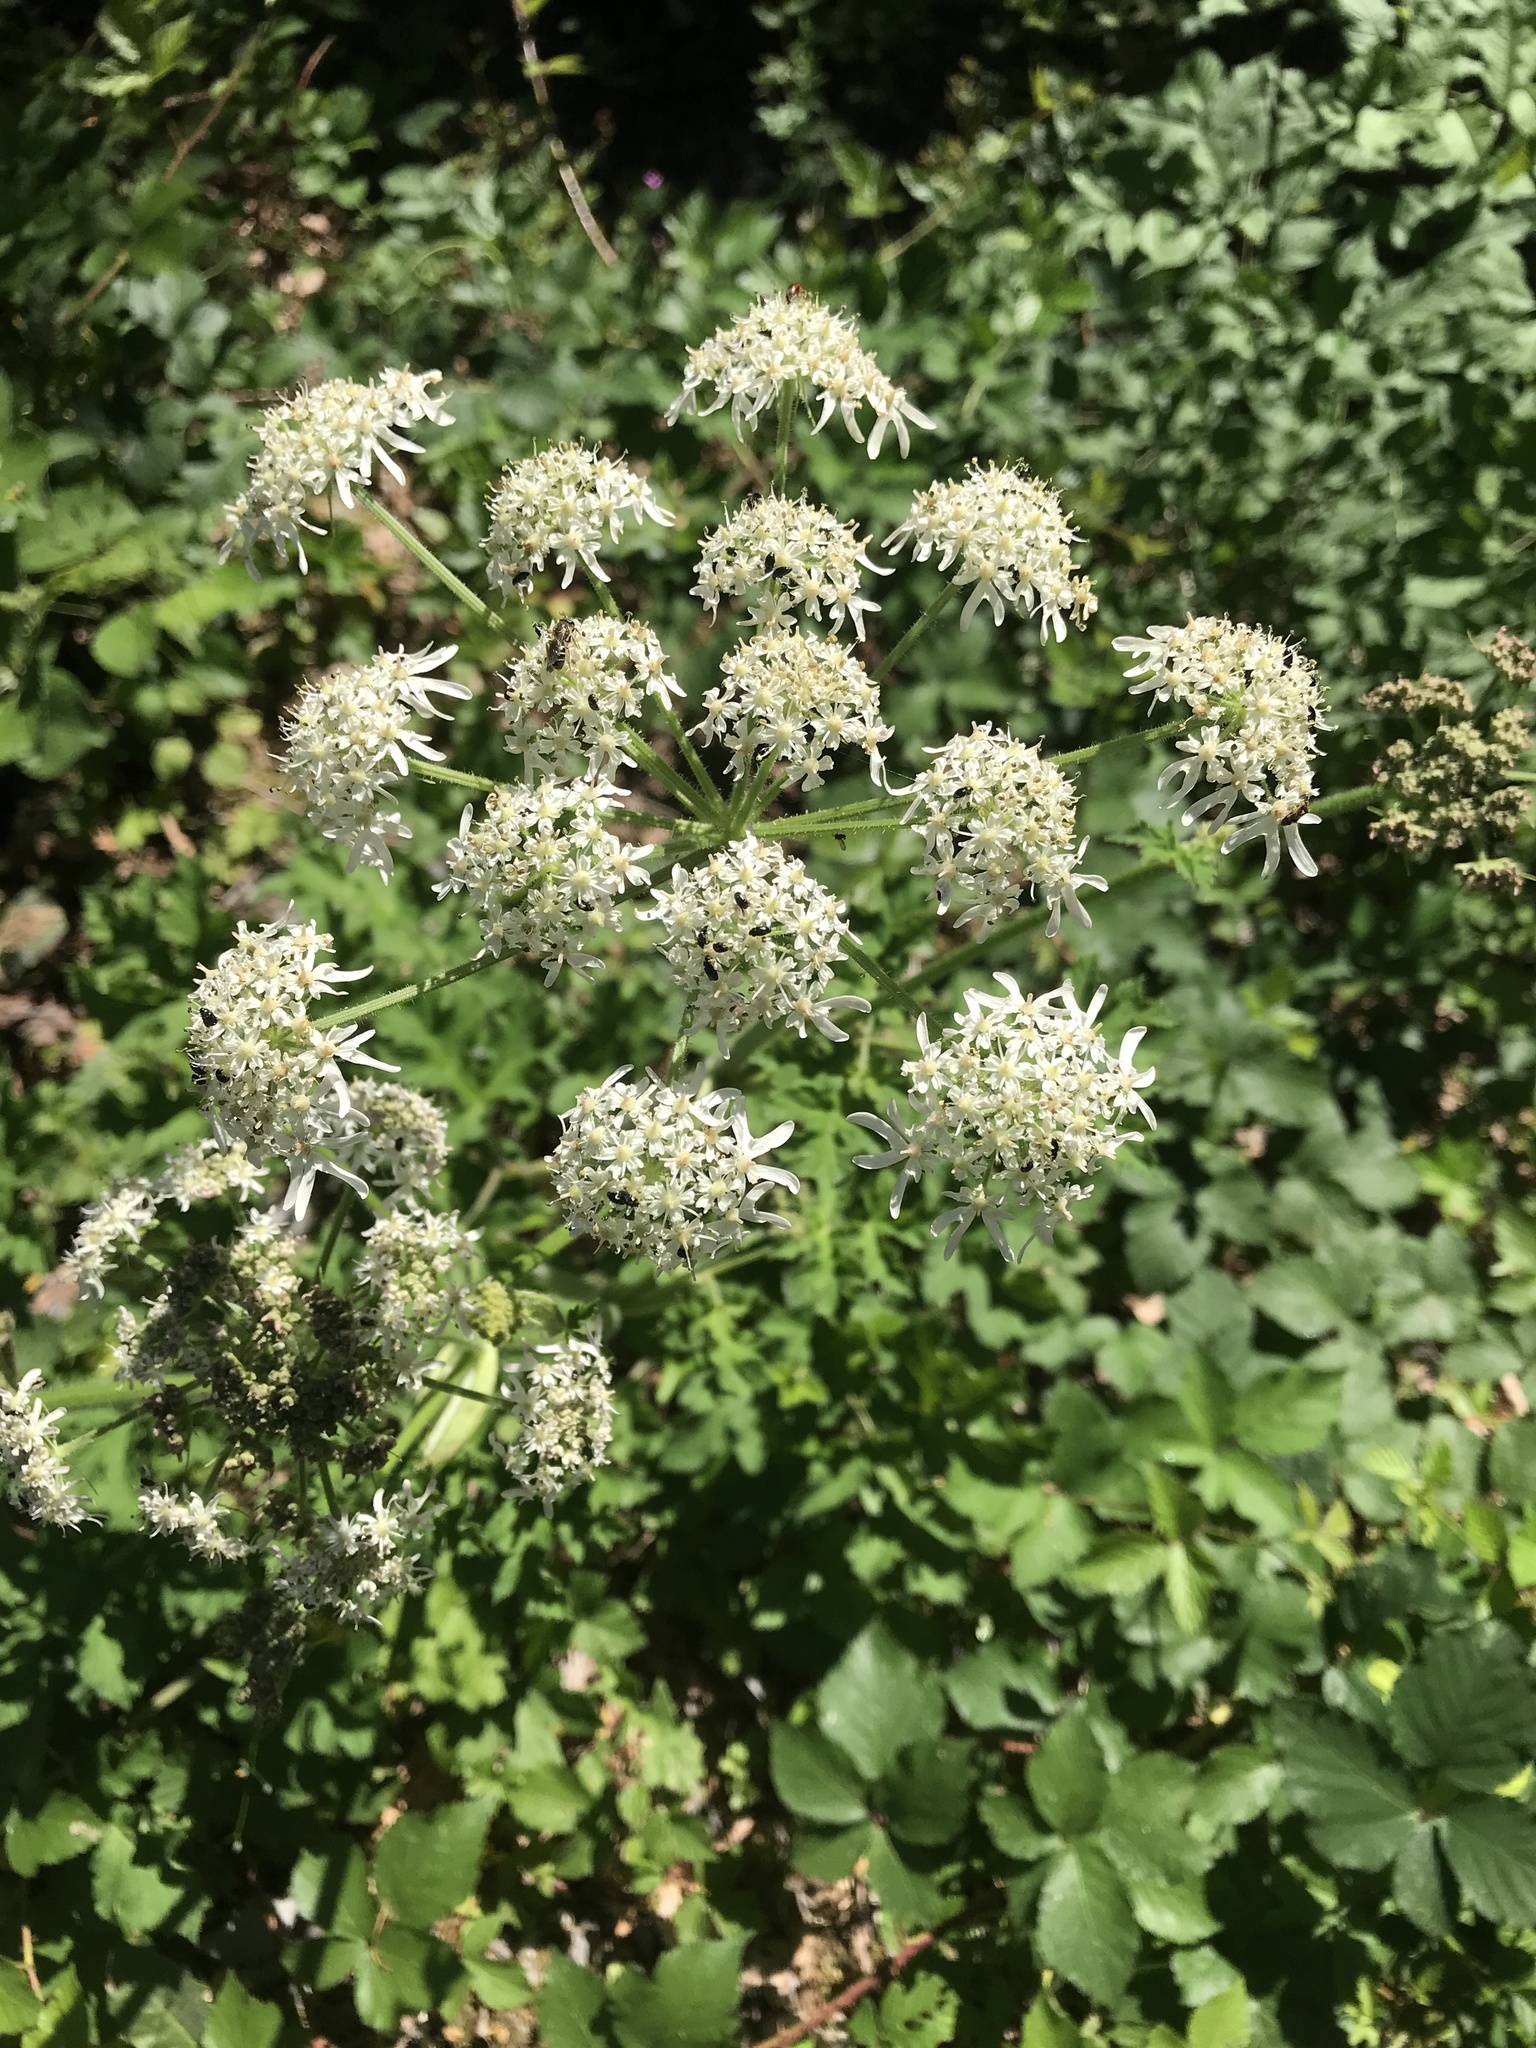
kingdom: Plantae
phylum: Tracheophyta
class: Magnoliopsida
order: Apiales
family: Apiaceae
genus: Heracleum
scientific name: Heracleum sphondylium
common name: Hogweed
